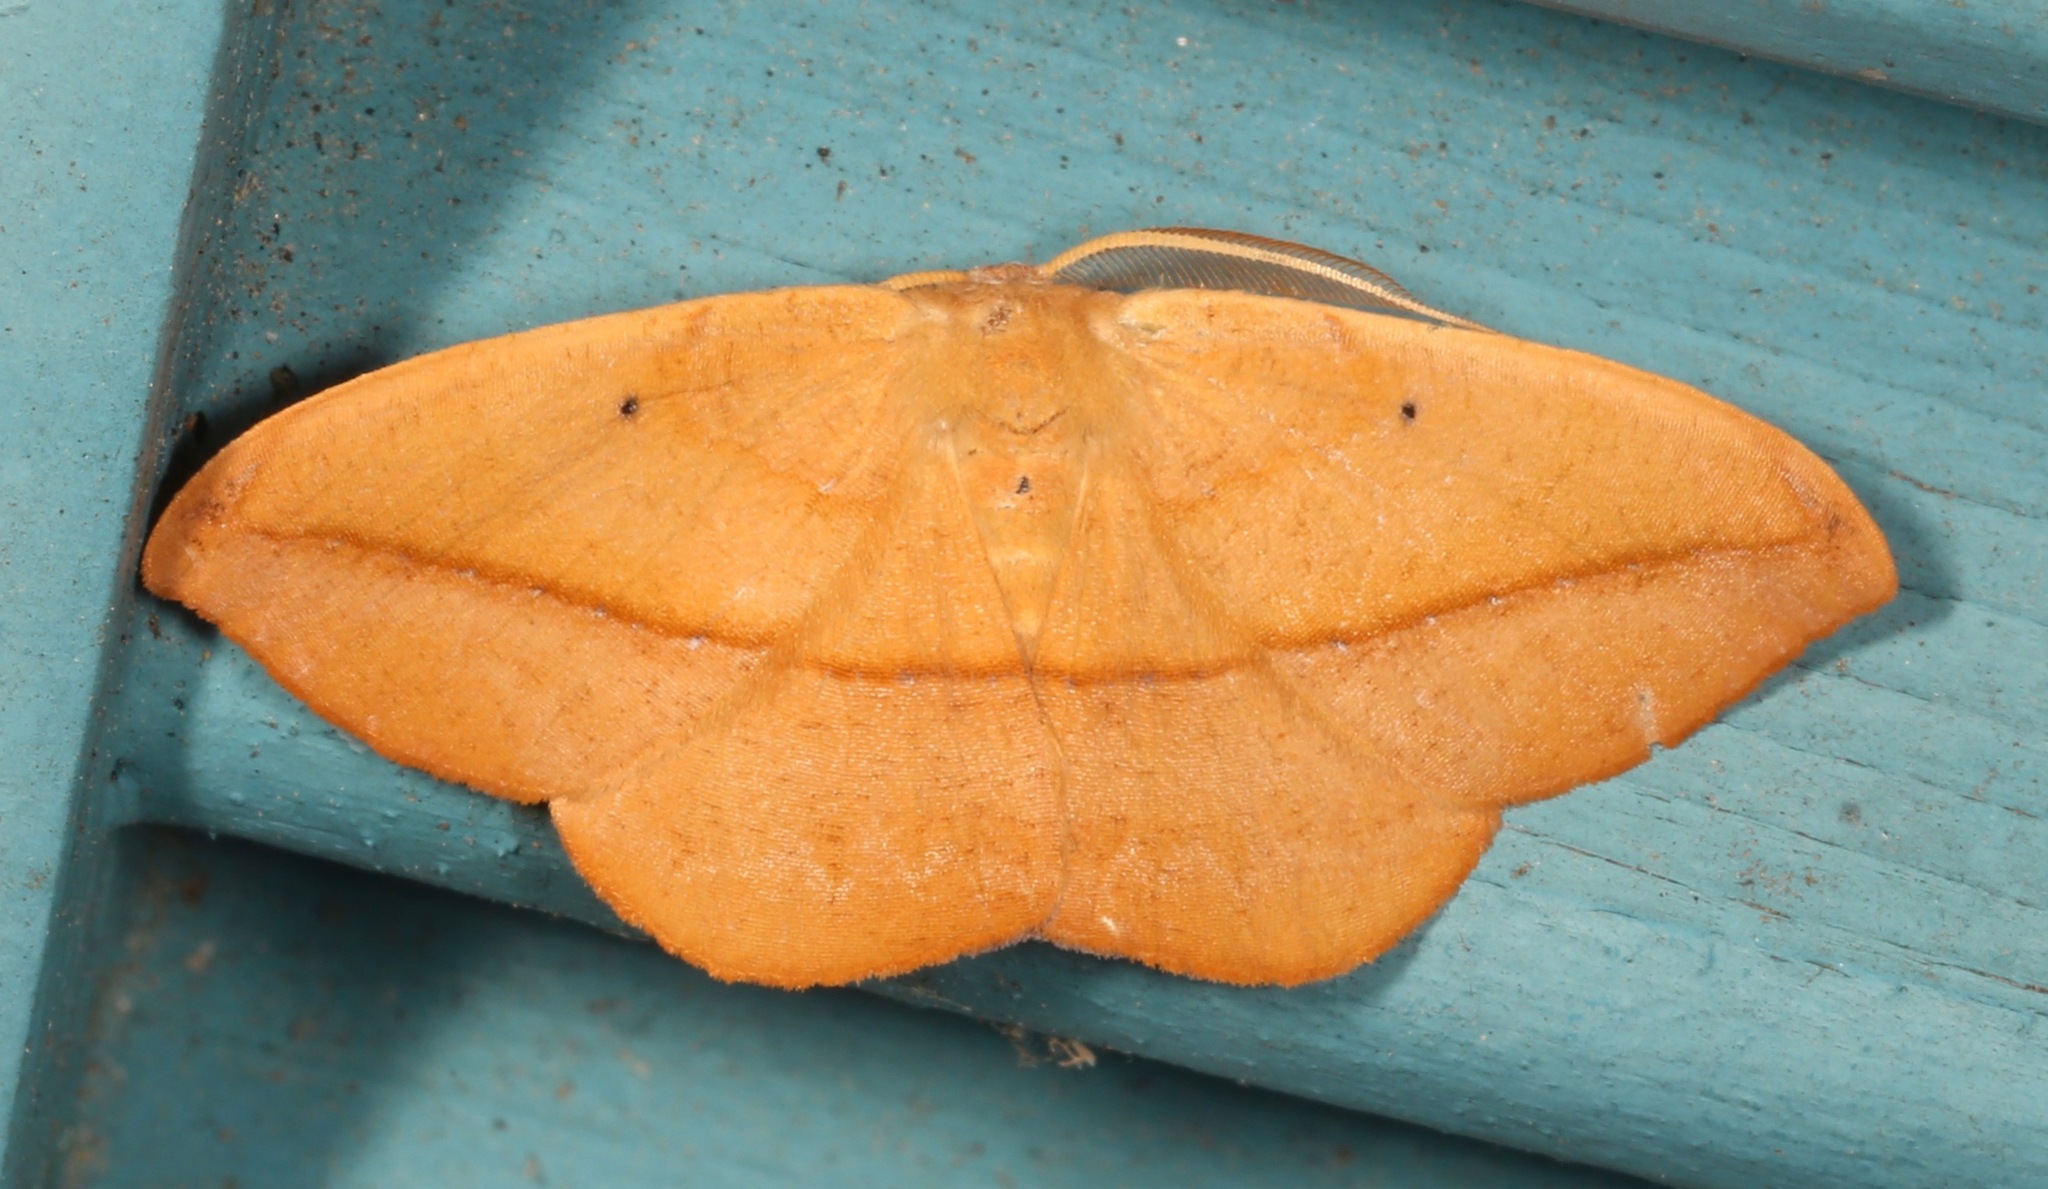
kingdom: Animalia
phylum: Arthropoda
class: Insecta
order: Lepidoptera
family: Geometridae
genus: Patalene
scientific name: Patalene olyzonaria
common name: Juniper geometer moth
